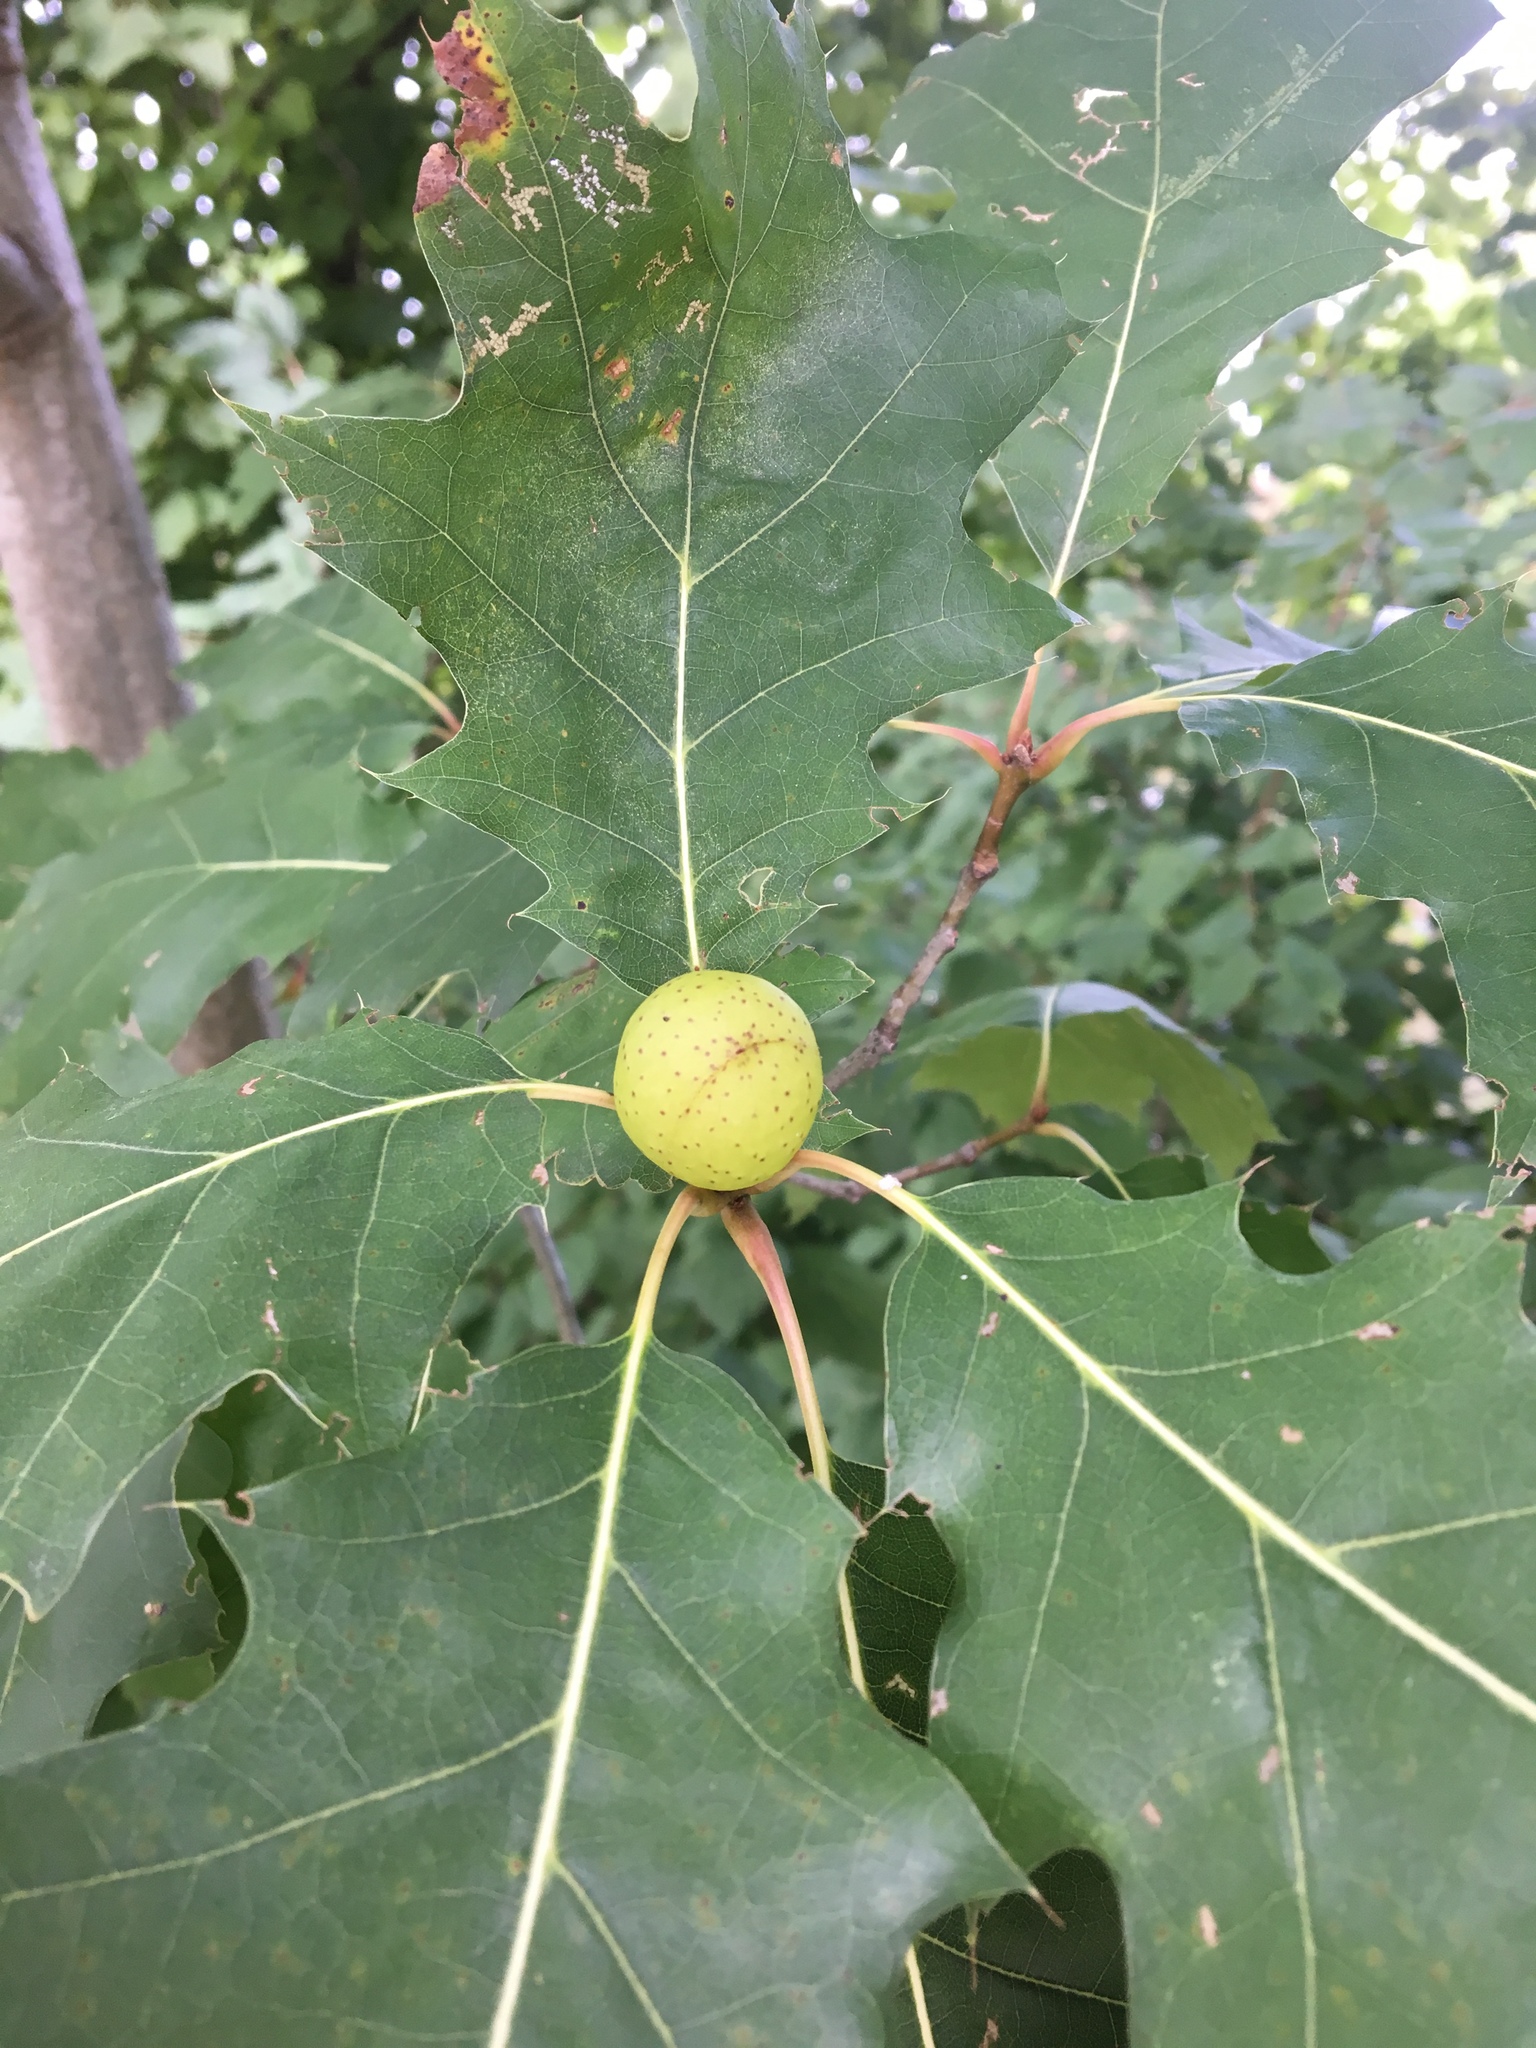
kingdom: Animalia
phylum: Arthropoda
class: Insecta
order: Hymenoptera
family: Cynipidae
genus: Amphibolips
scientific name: Amphibolips
